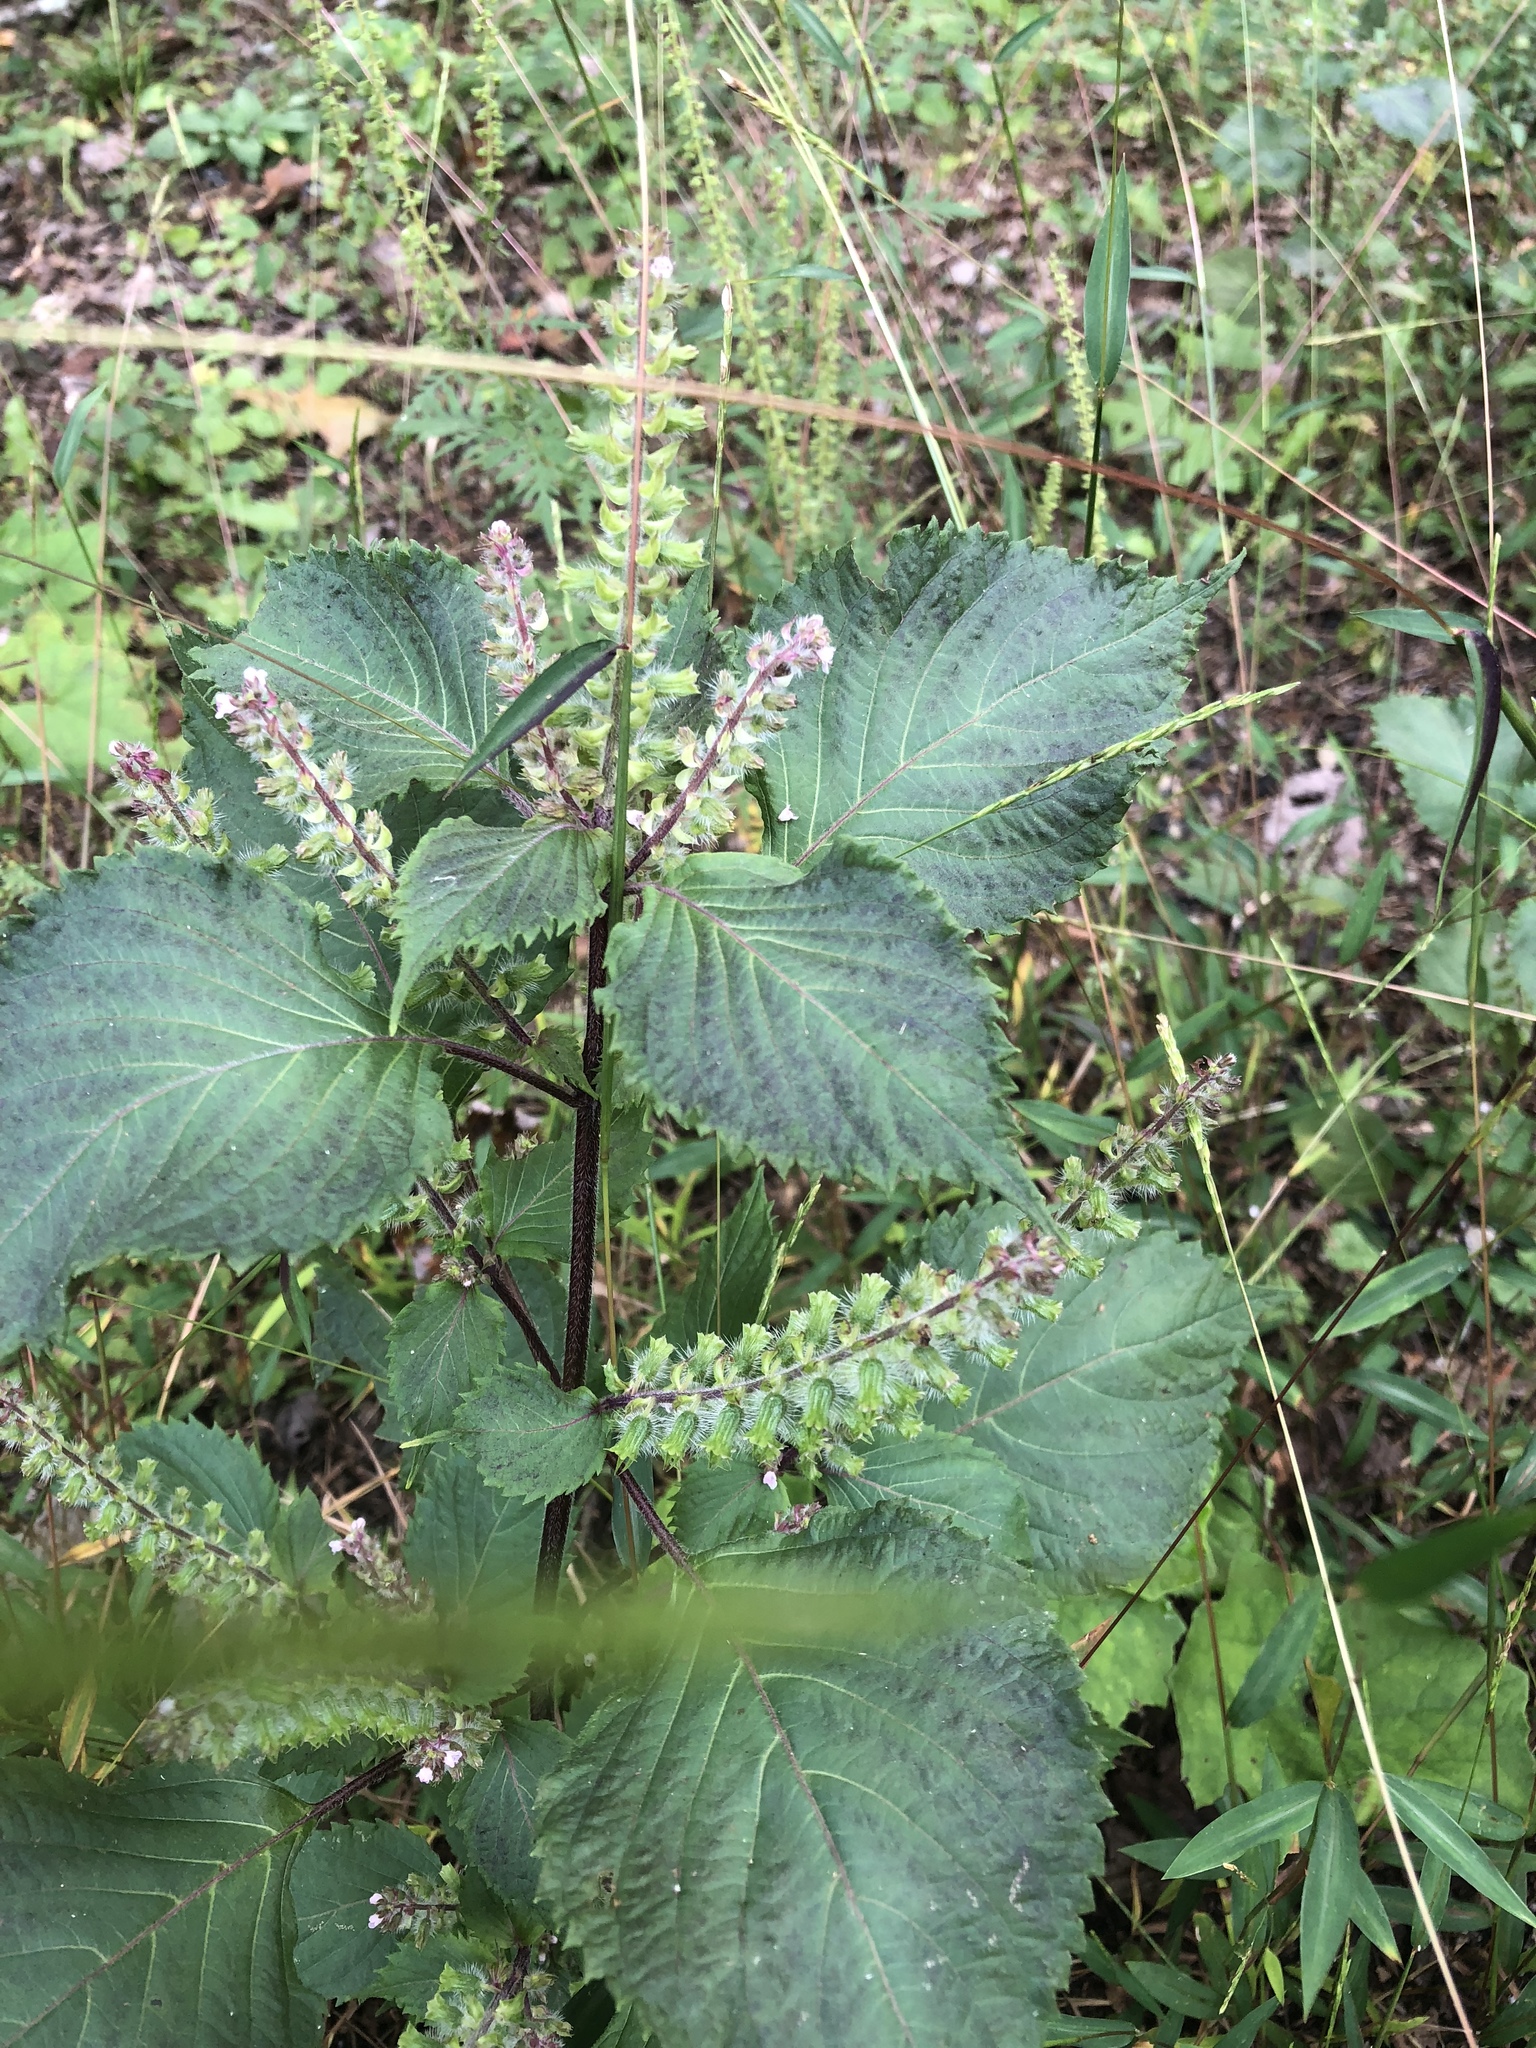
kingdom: Plantae
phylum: Tracheophyta
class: Magnoliopsida
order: Lamiales
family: Lamiaceae
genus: Perilla
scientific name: Perilla frutescens
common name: Perilla
